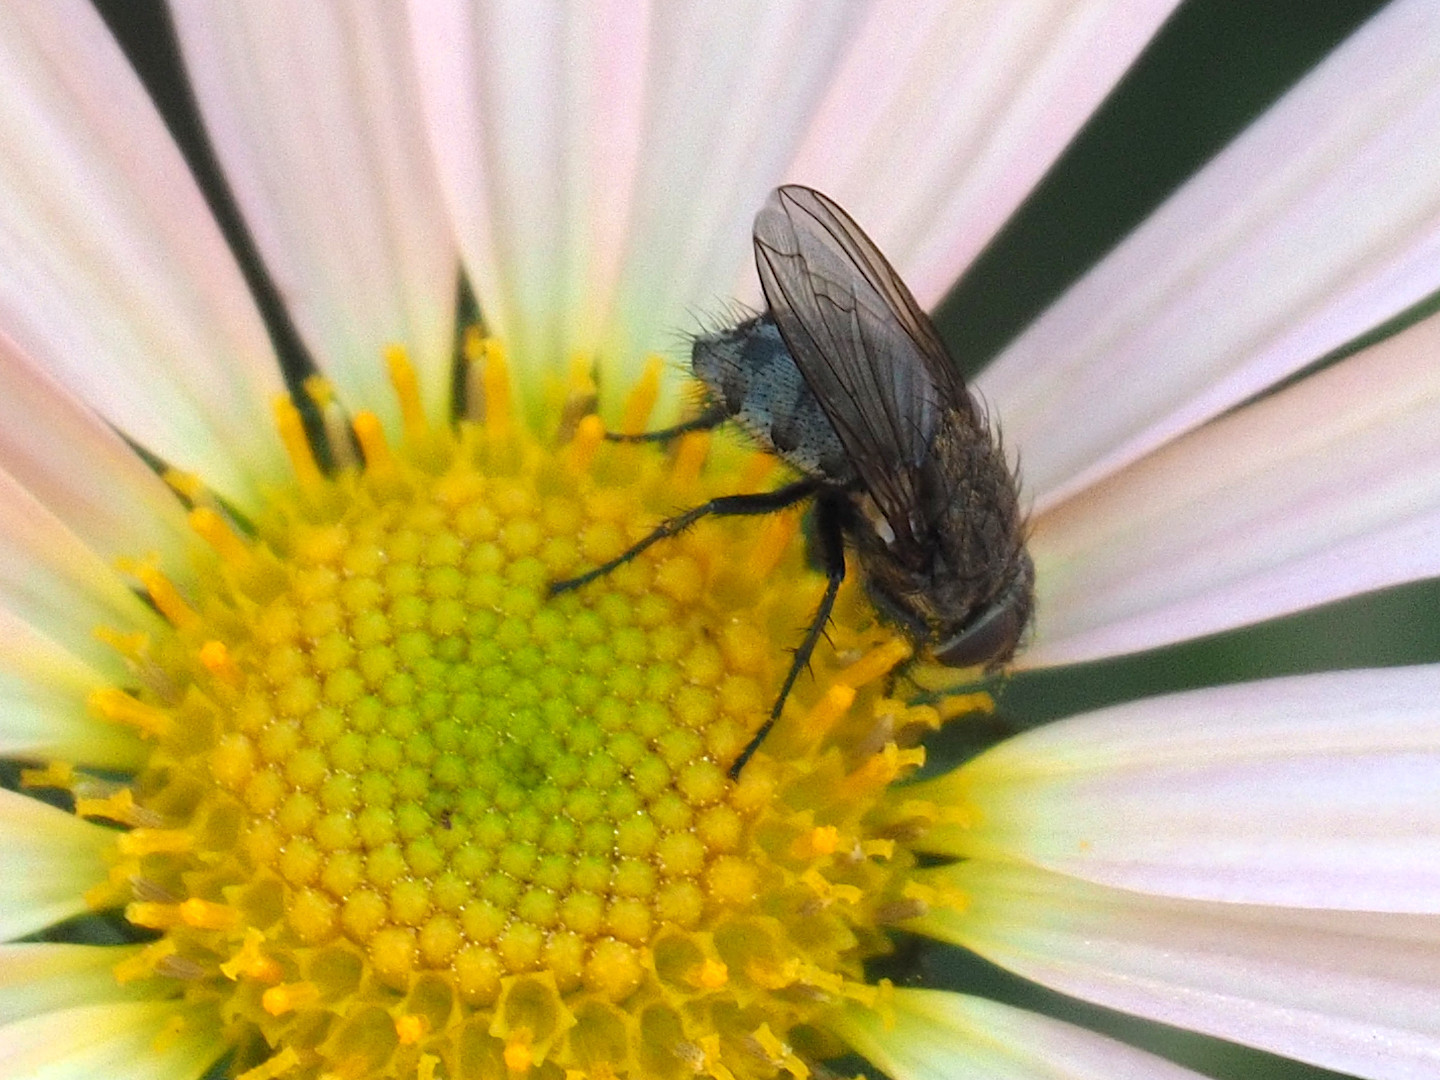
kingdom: Animalia
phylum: Arthropoda
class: Insecta
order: Diptera
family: Polleniidae
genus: Pollenia
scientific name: Pollenia
